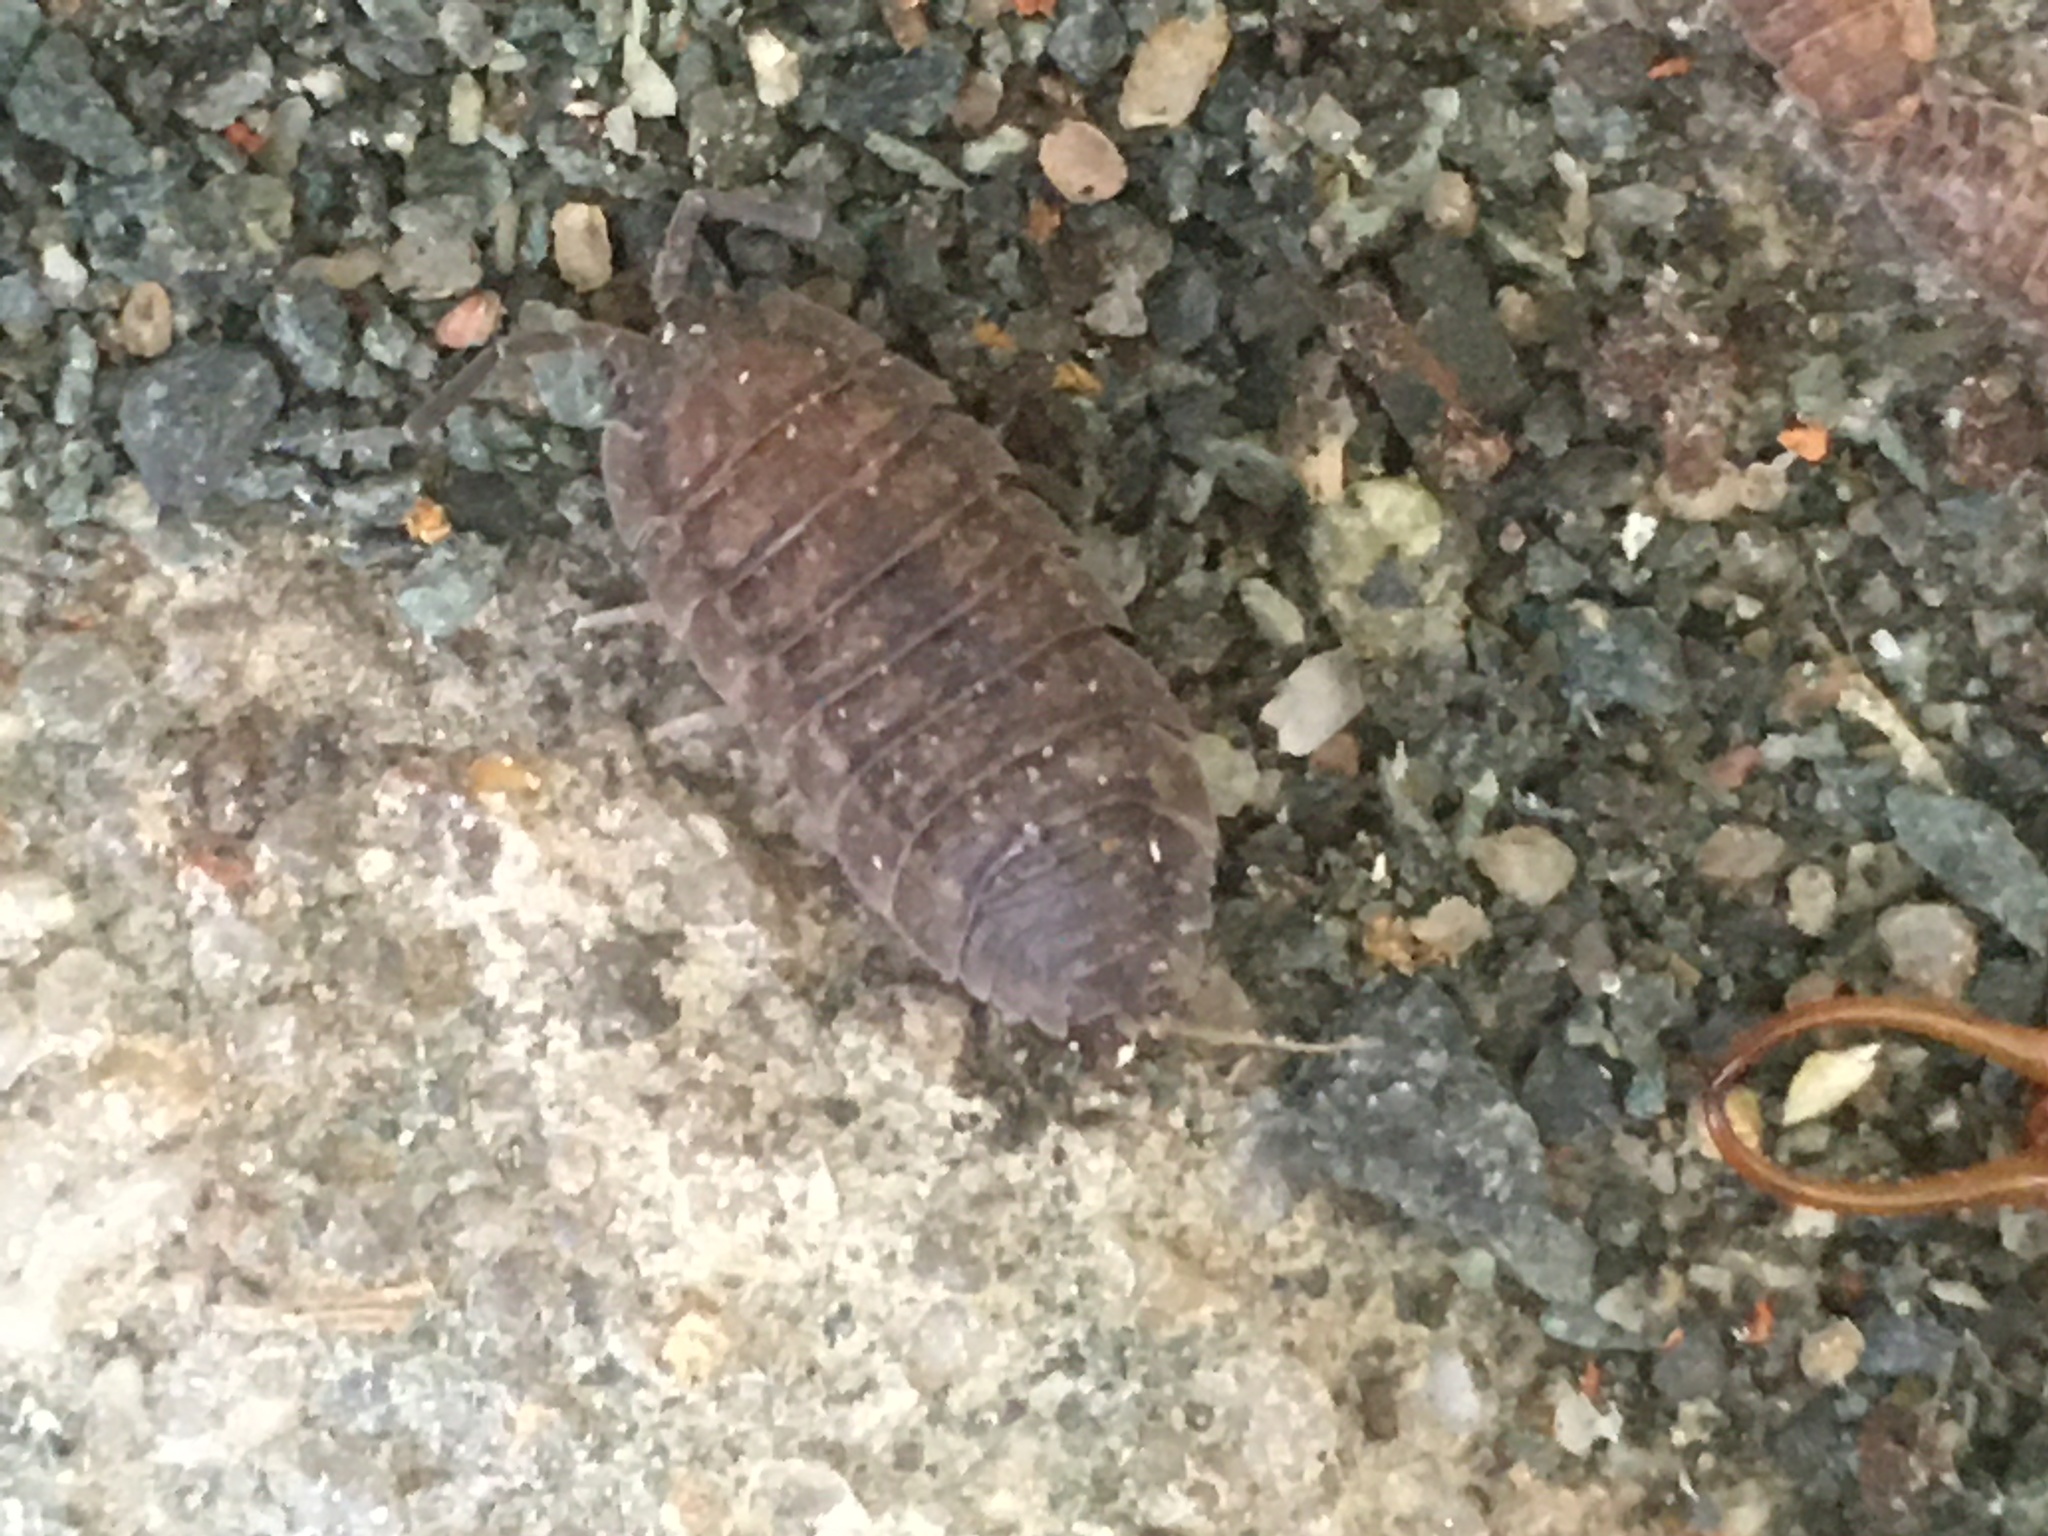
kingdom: Animalia
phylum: Arthropoda
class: Malacostraca
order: Isopoda
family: Porcellionidae
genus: Porcellio
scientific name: Porcellio scaber
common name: Common rough woodlouse
